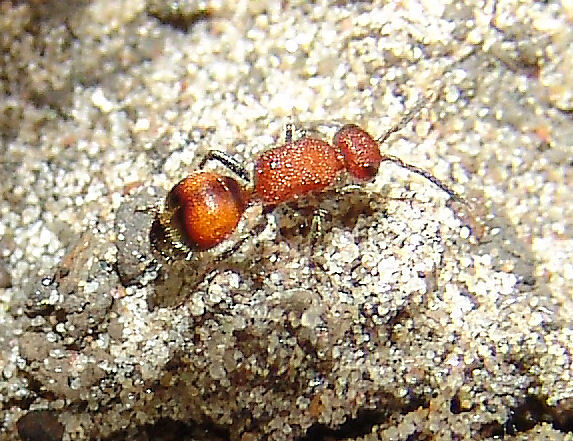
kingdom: Animalia
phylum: Arthropoda
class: Insecta
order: Hymenoptera
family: Mutillidae
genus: Timulla
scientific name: Timulla
